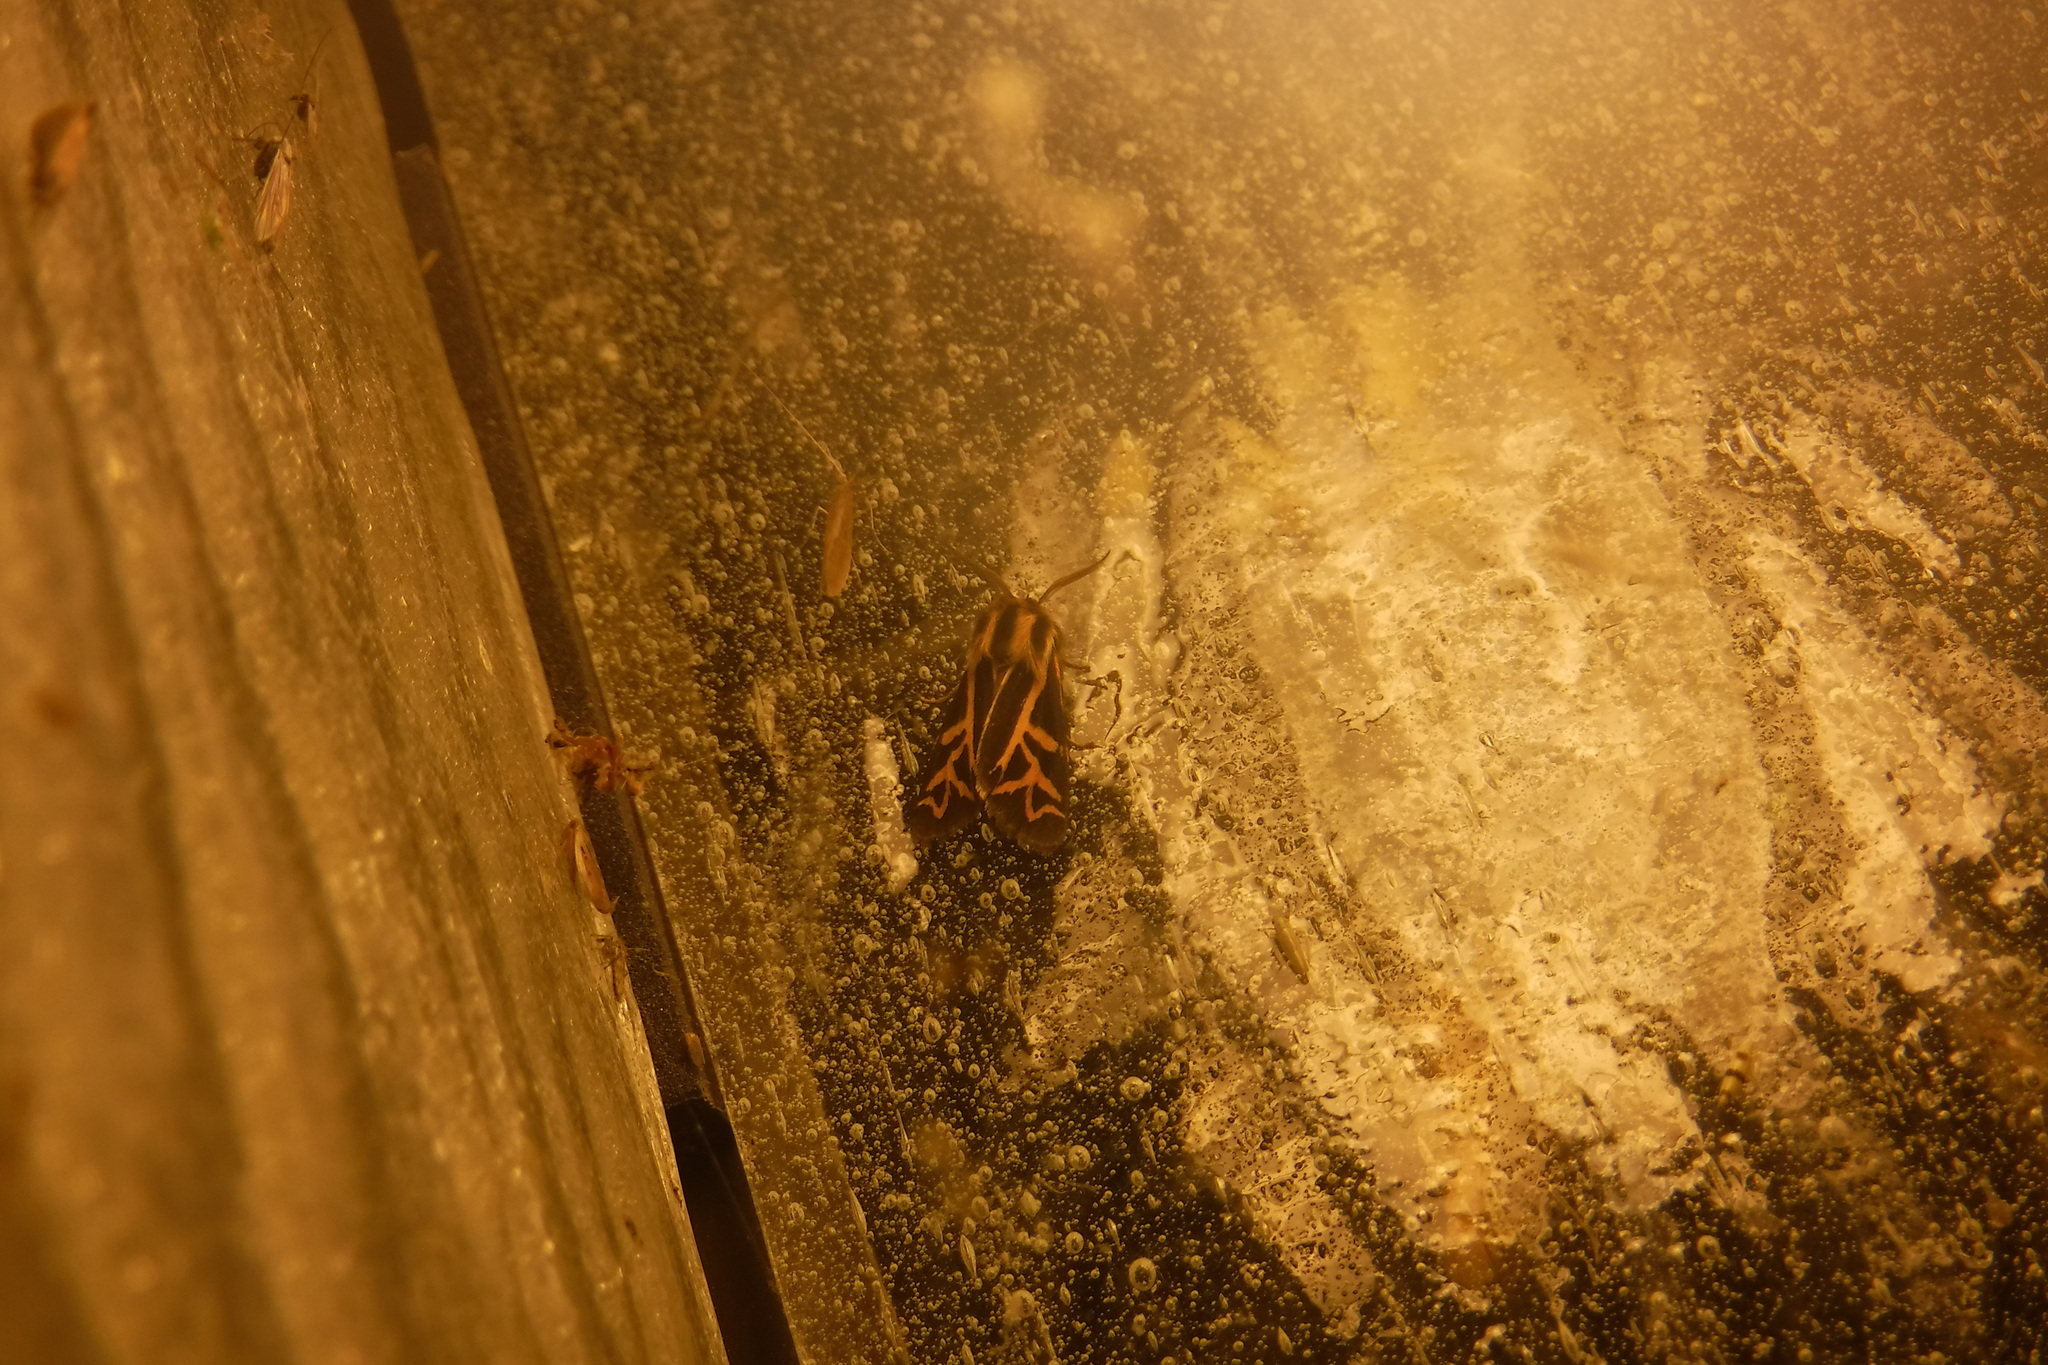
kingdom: Animalia
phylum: Arthropoda
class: Insecta
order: Lepidoptera
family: Erebidae
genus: Apantesis
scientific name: Apantesis
